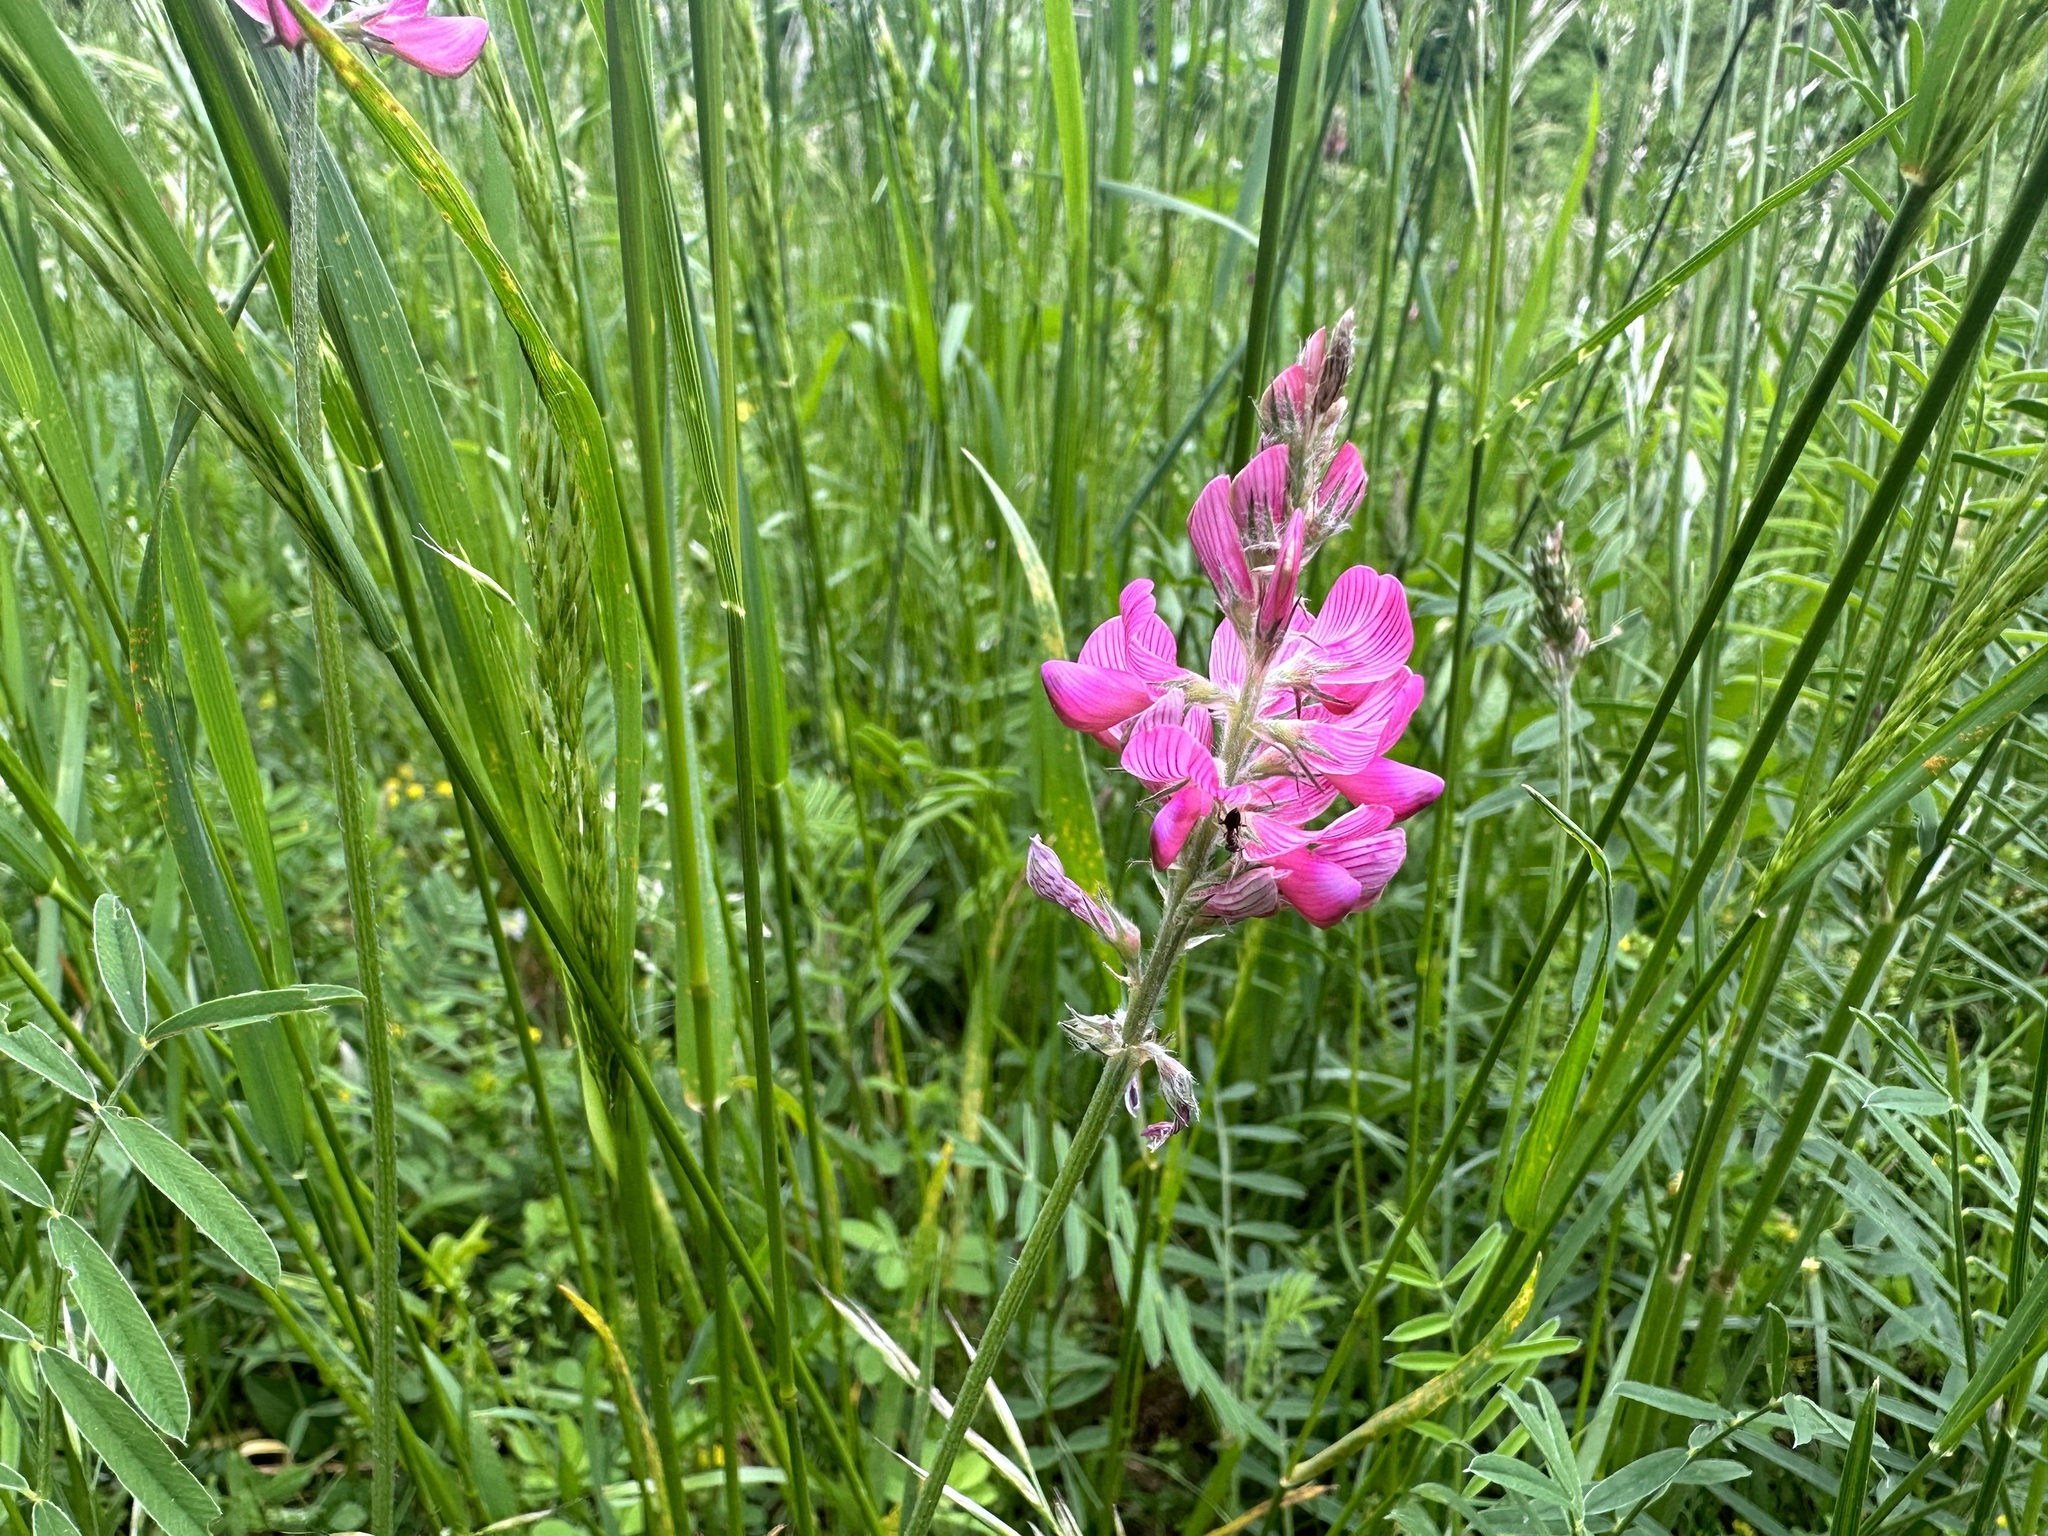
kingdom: Plantae
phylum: Tracheophyta
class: Magnoliopsida
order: Fabales
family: Fabaceae
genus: Onobrychis
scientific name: Onobrychis viciifolia
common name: Sainfoin
